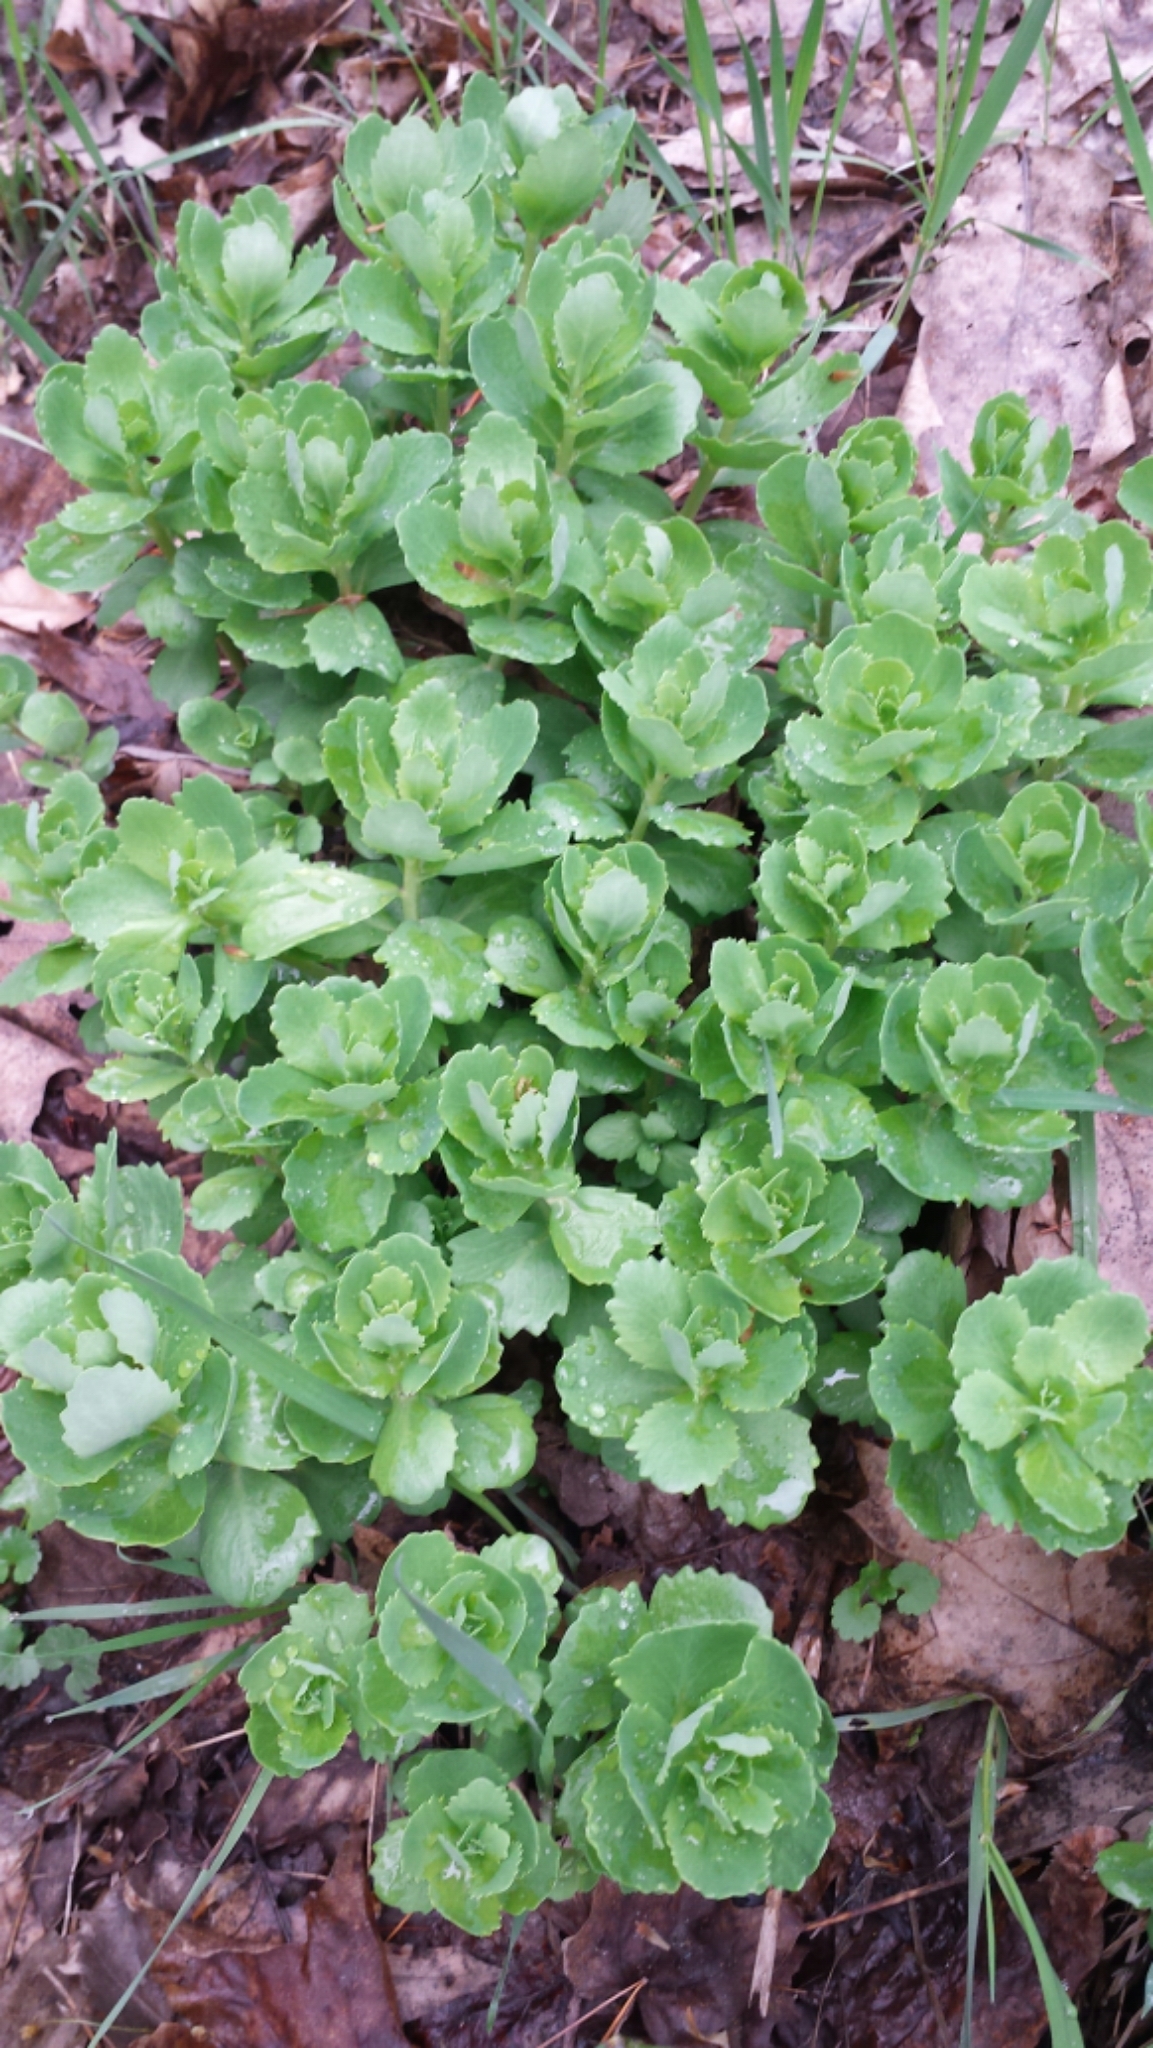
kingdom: Plantae
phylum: Tracheophyta
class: Magnoliopsida
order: Saxifragales
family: Crassulaceae
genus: Hylotelephium
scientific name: Hylotelephium telephium
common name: Live-forever
